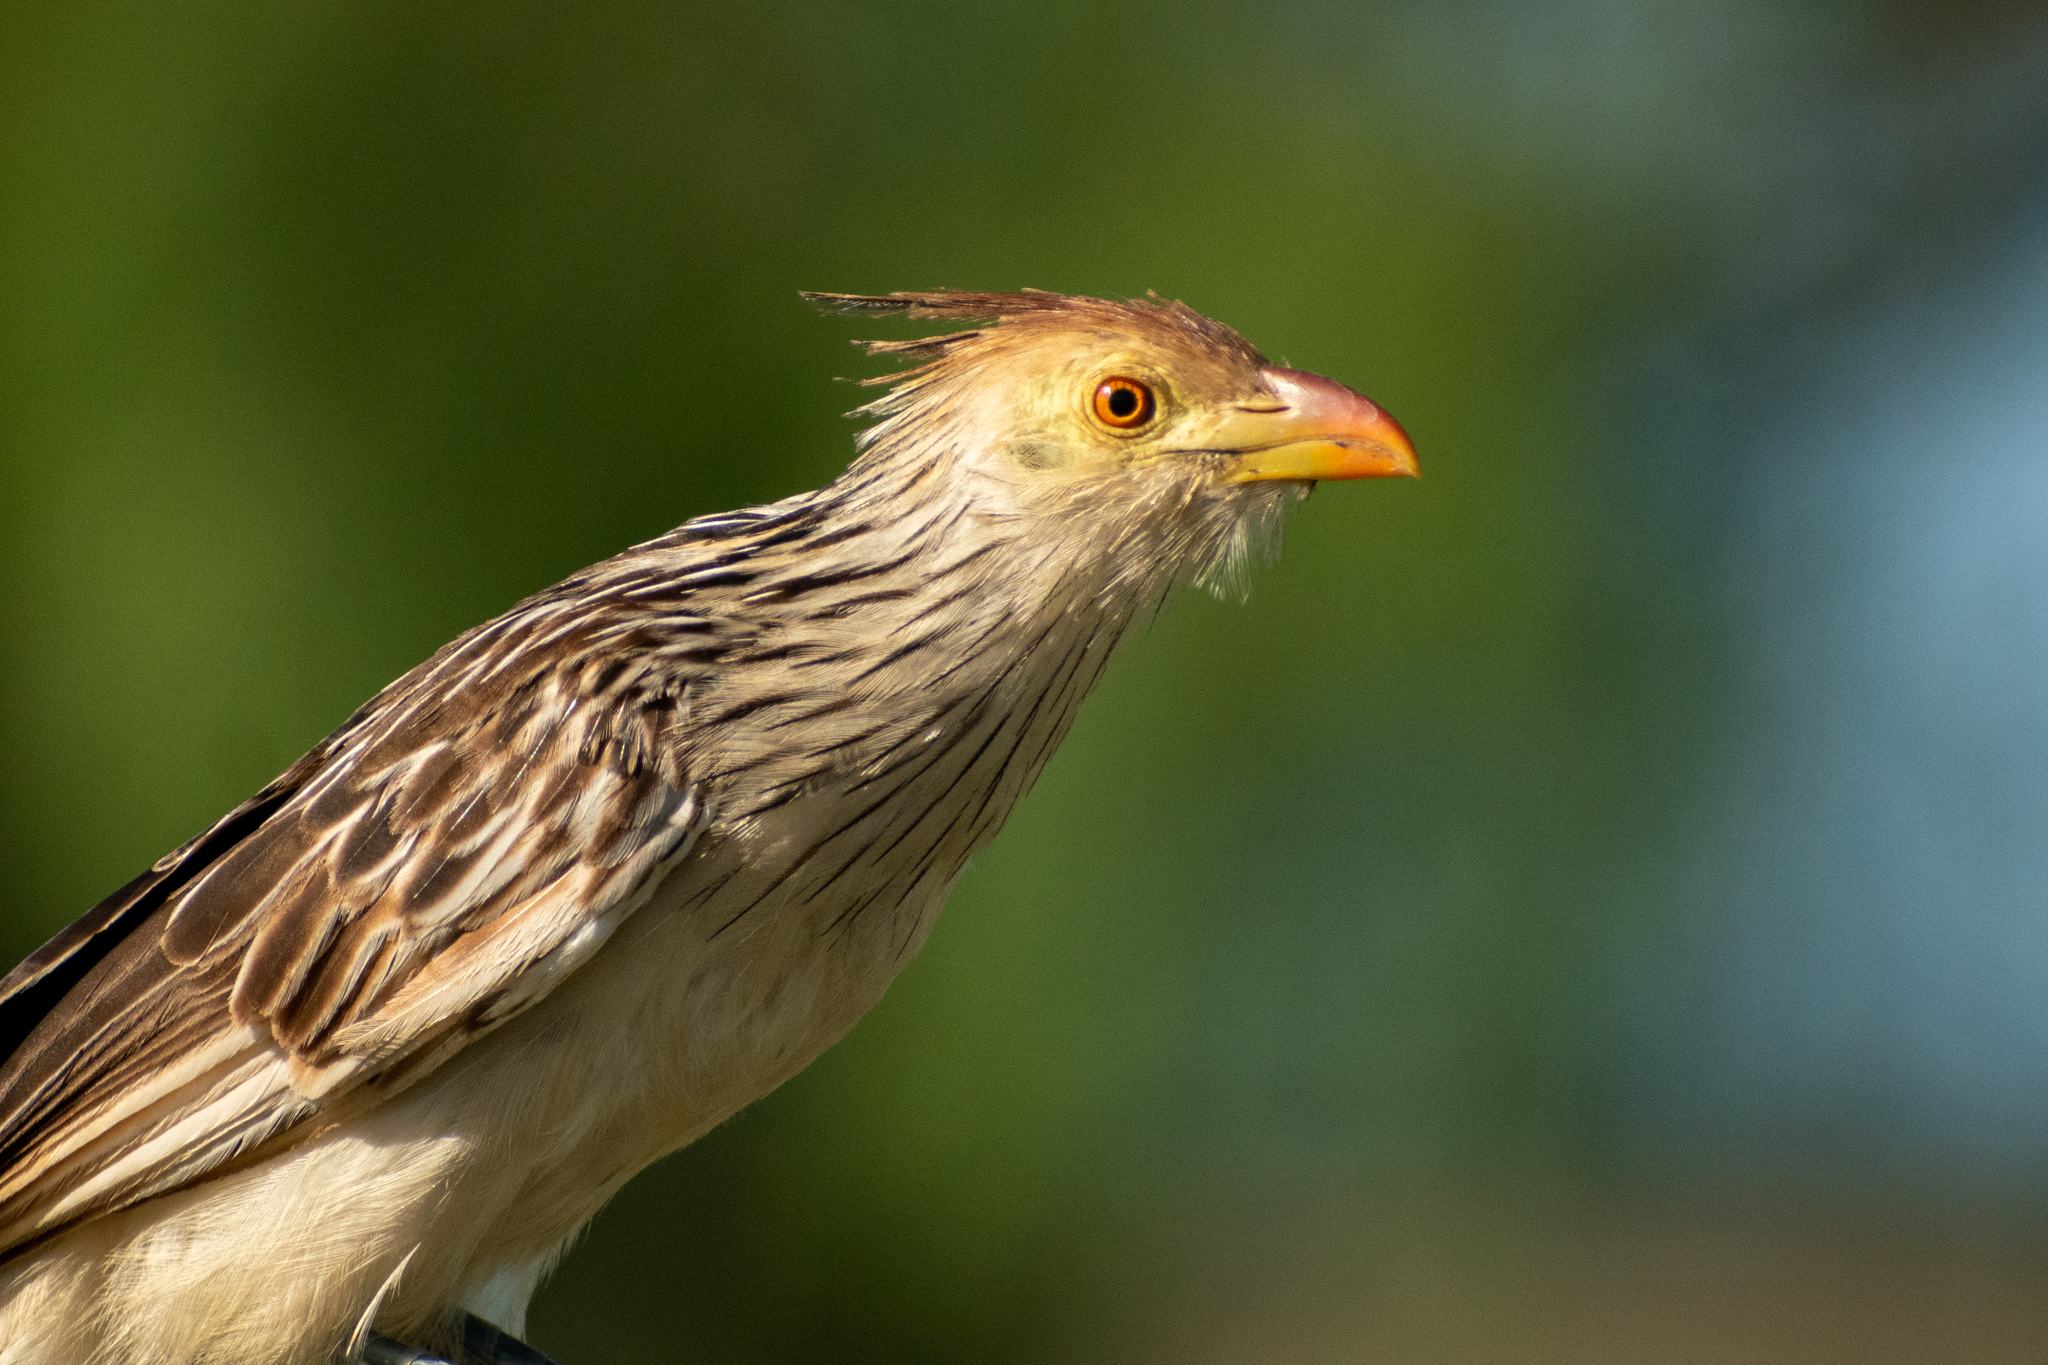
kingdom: Animalia
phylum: Chordata
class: Aves
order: Cuculiformes
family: Cuculidae
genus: Guira
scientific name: Guira guira
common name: Guira cuckoo
